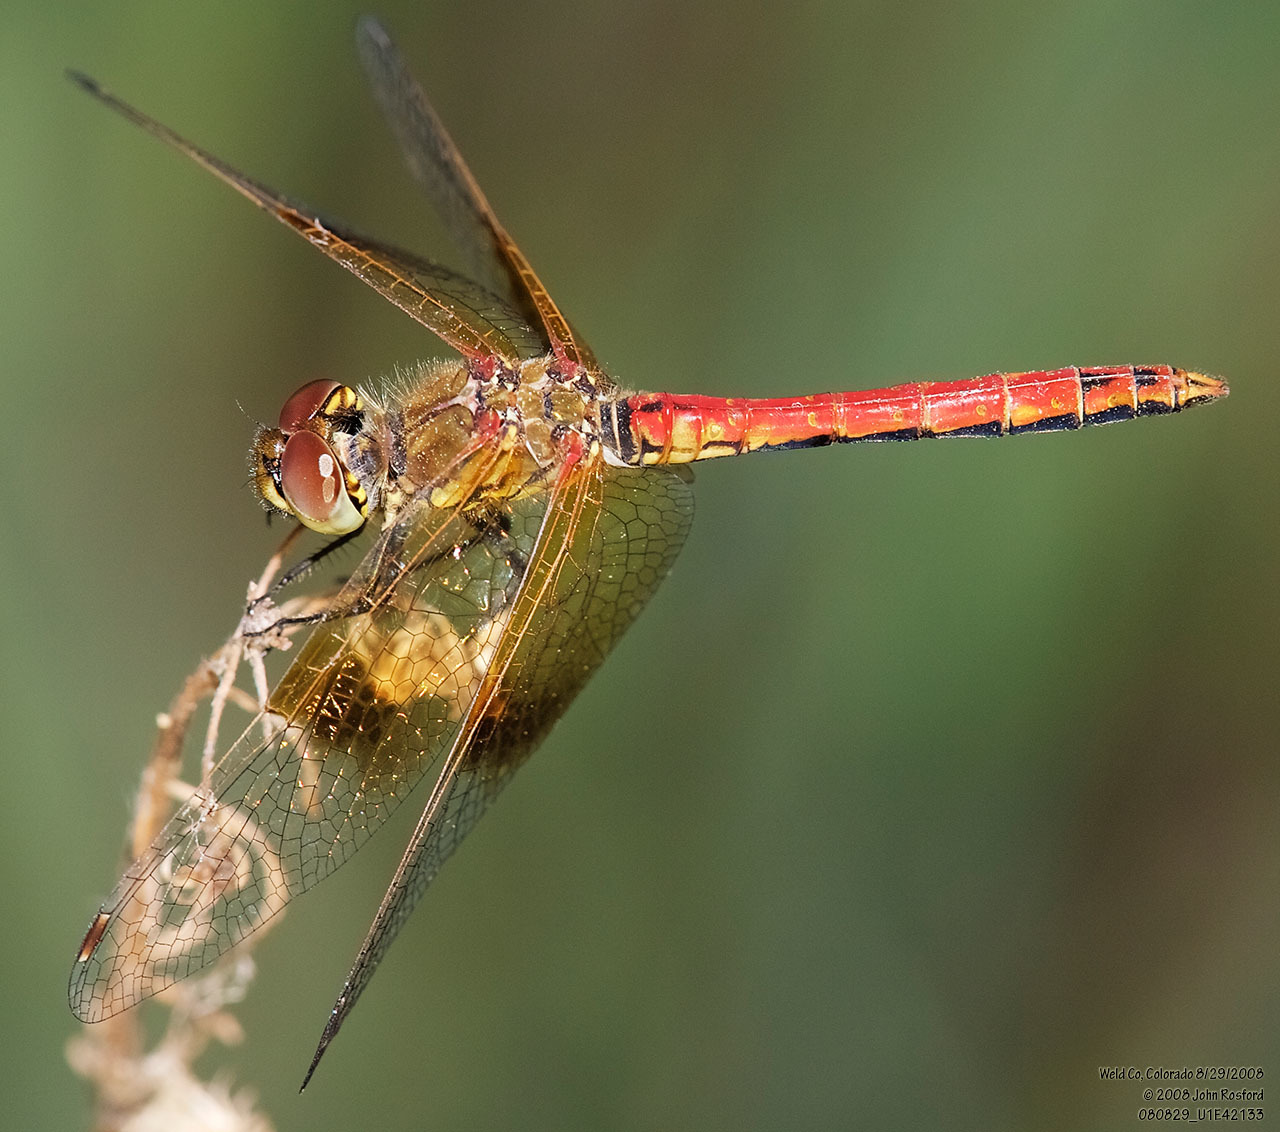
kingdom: Animalia
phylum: Arthropoda
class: Insecta
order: Odonata
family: Libellulidae
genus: Sympetrum
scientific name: Sympetrum semicinctum
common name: Band-winged meadowhawk
